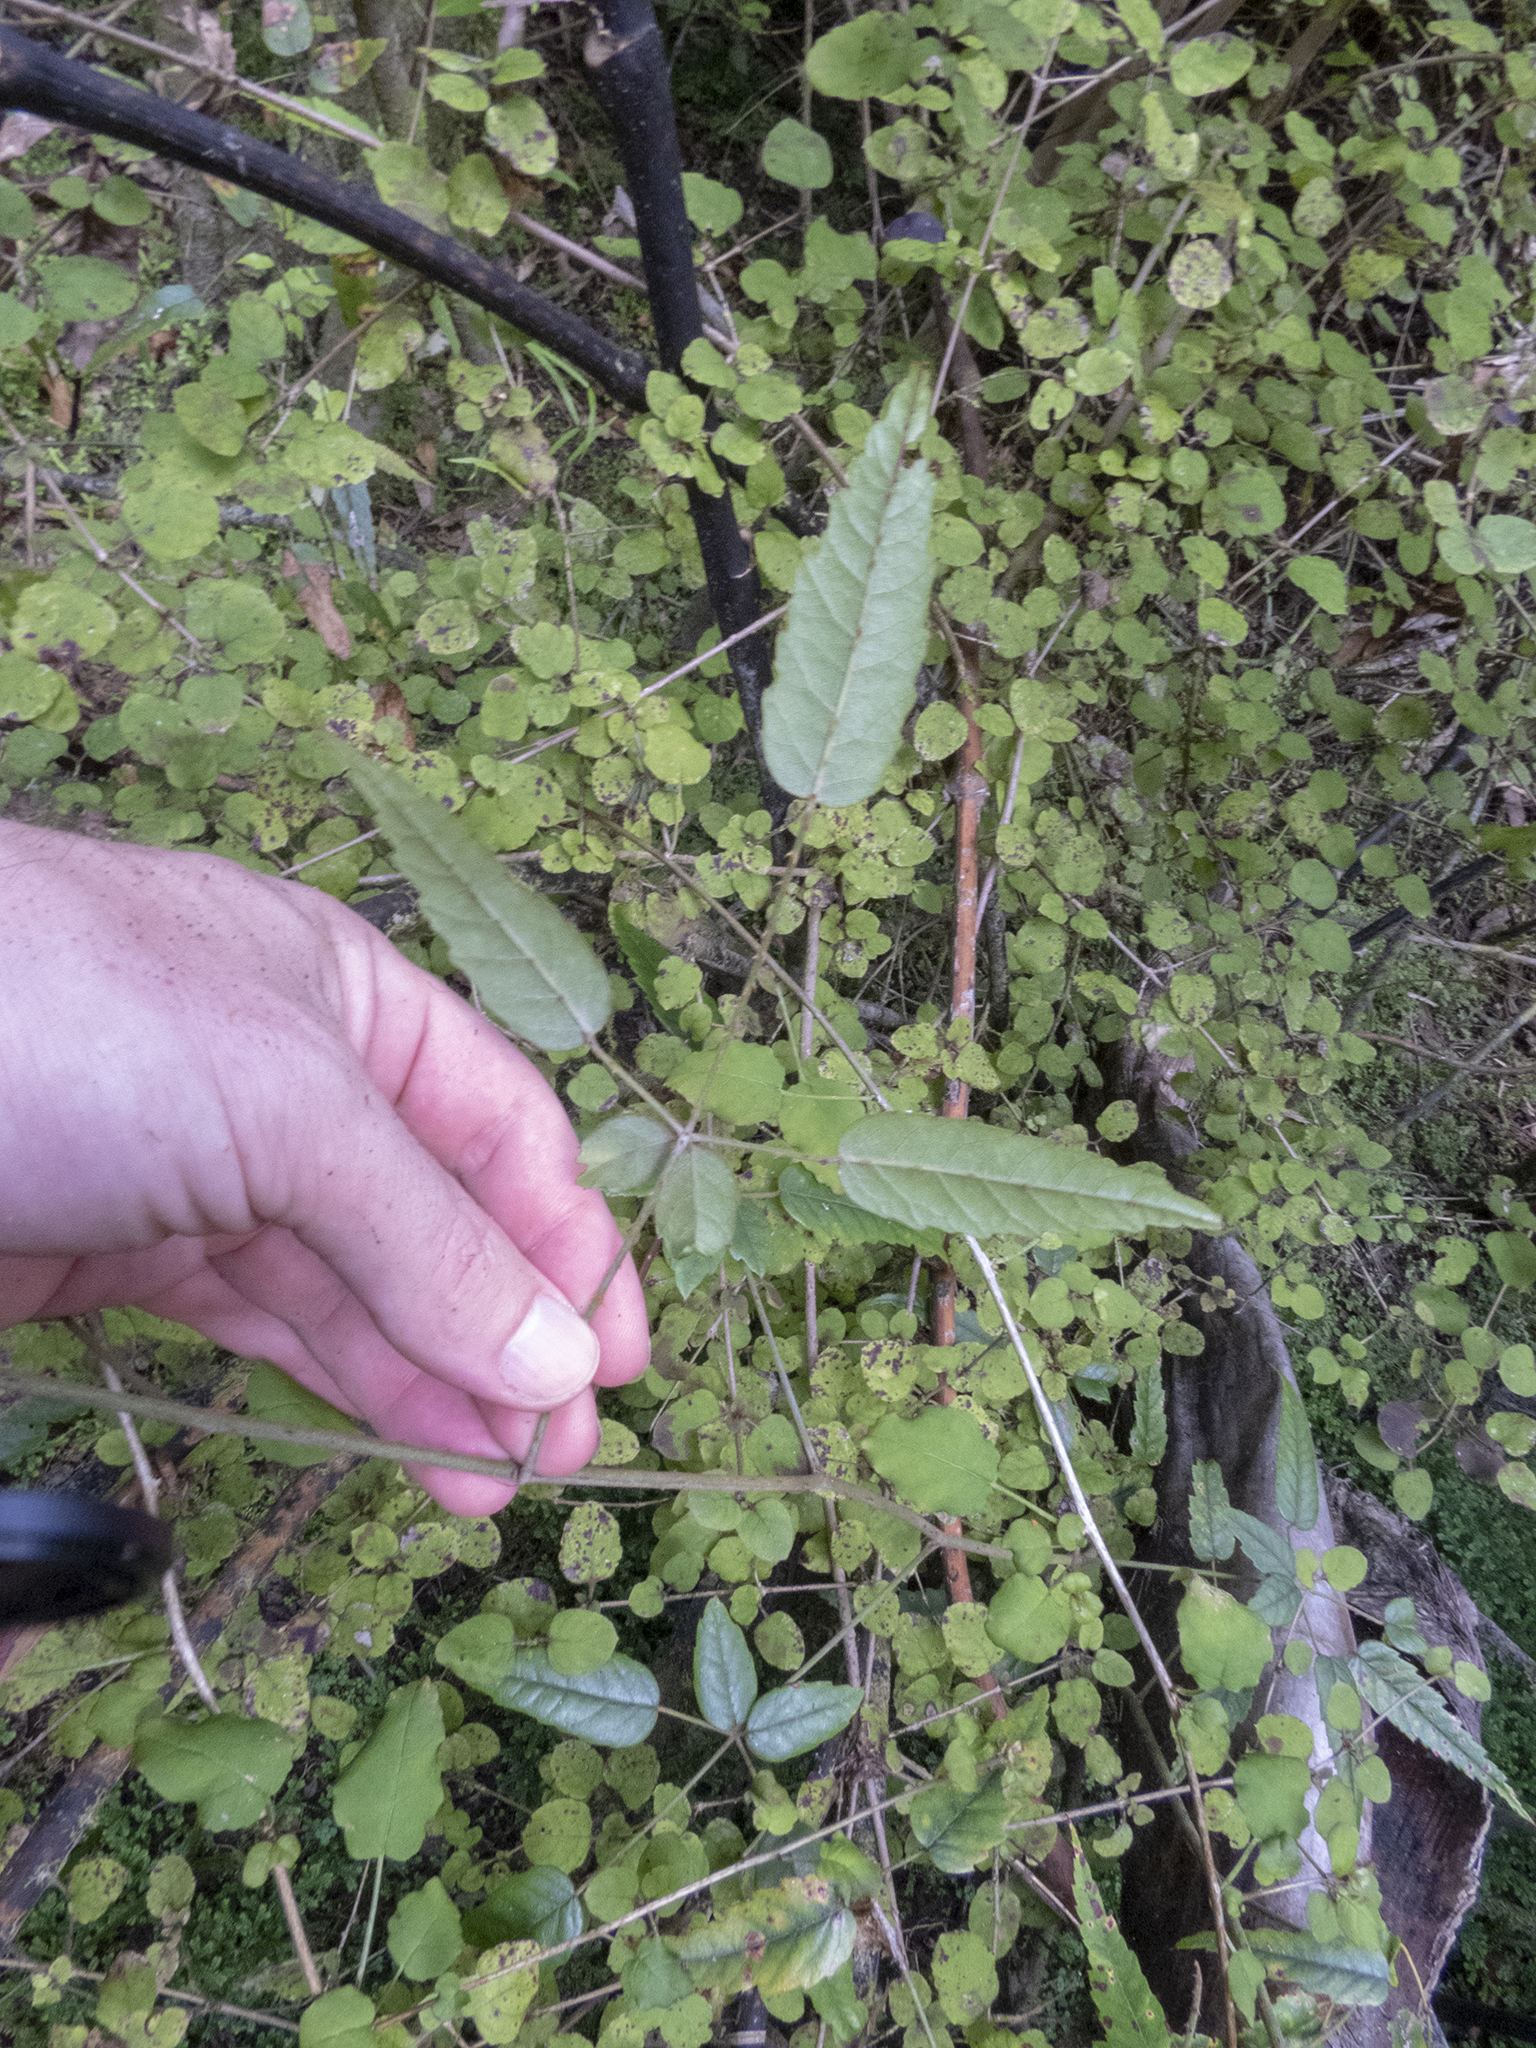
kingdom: Plantae
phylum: Tracheophyta
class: Magnoliopsida
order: Rosales
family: Rosaceae
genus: Rubus
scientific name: Rubus schmidelioides
